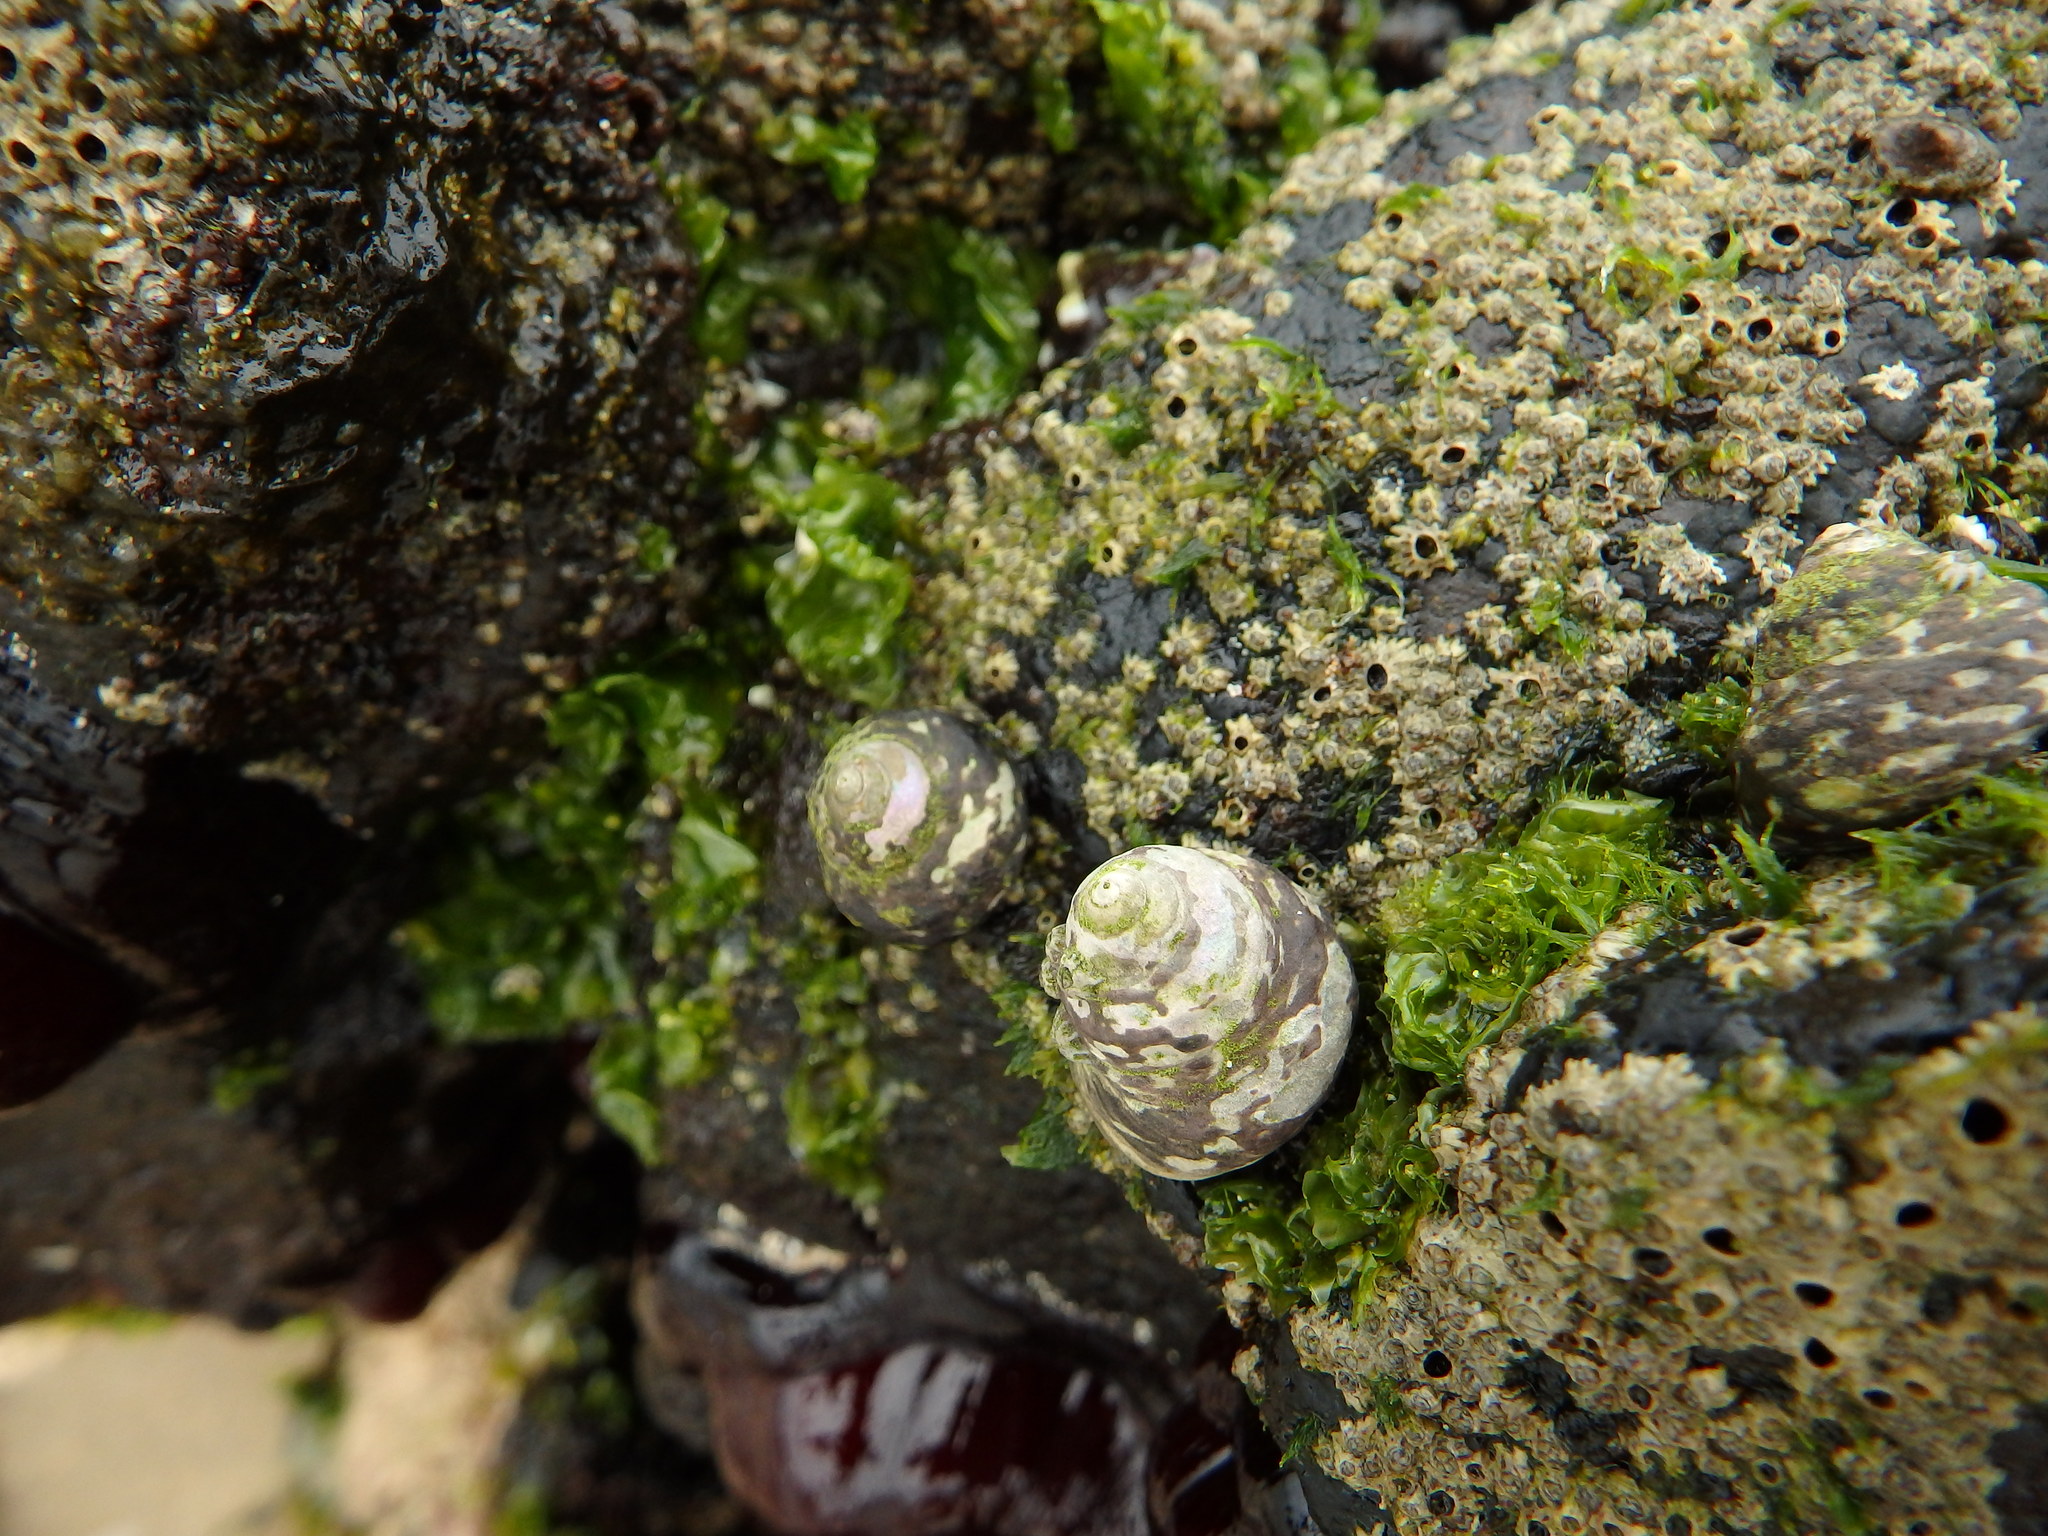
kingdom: Animalia
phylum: Mollusca
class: Gastropoda
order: Trochida
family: Trochidae
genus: Phorcus
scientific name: Phorcus mariae
